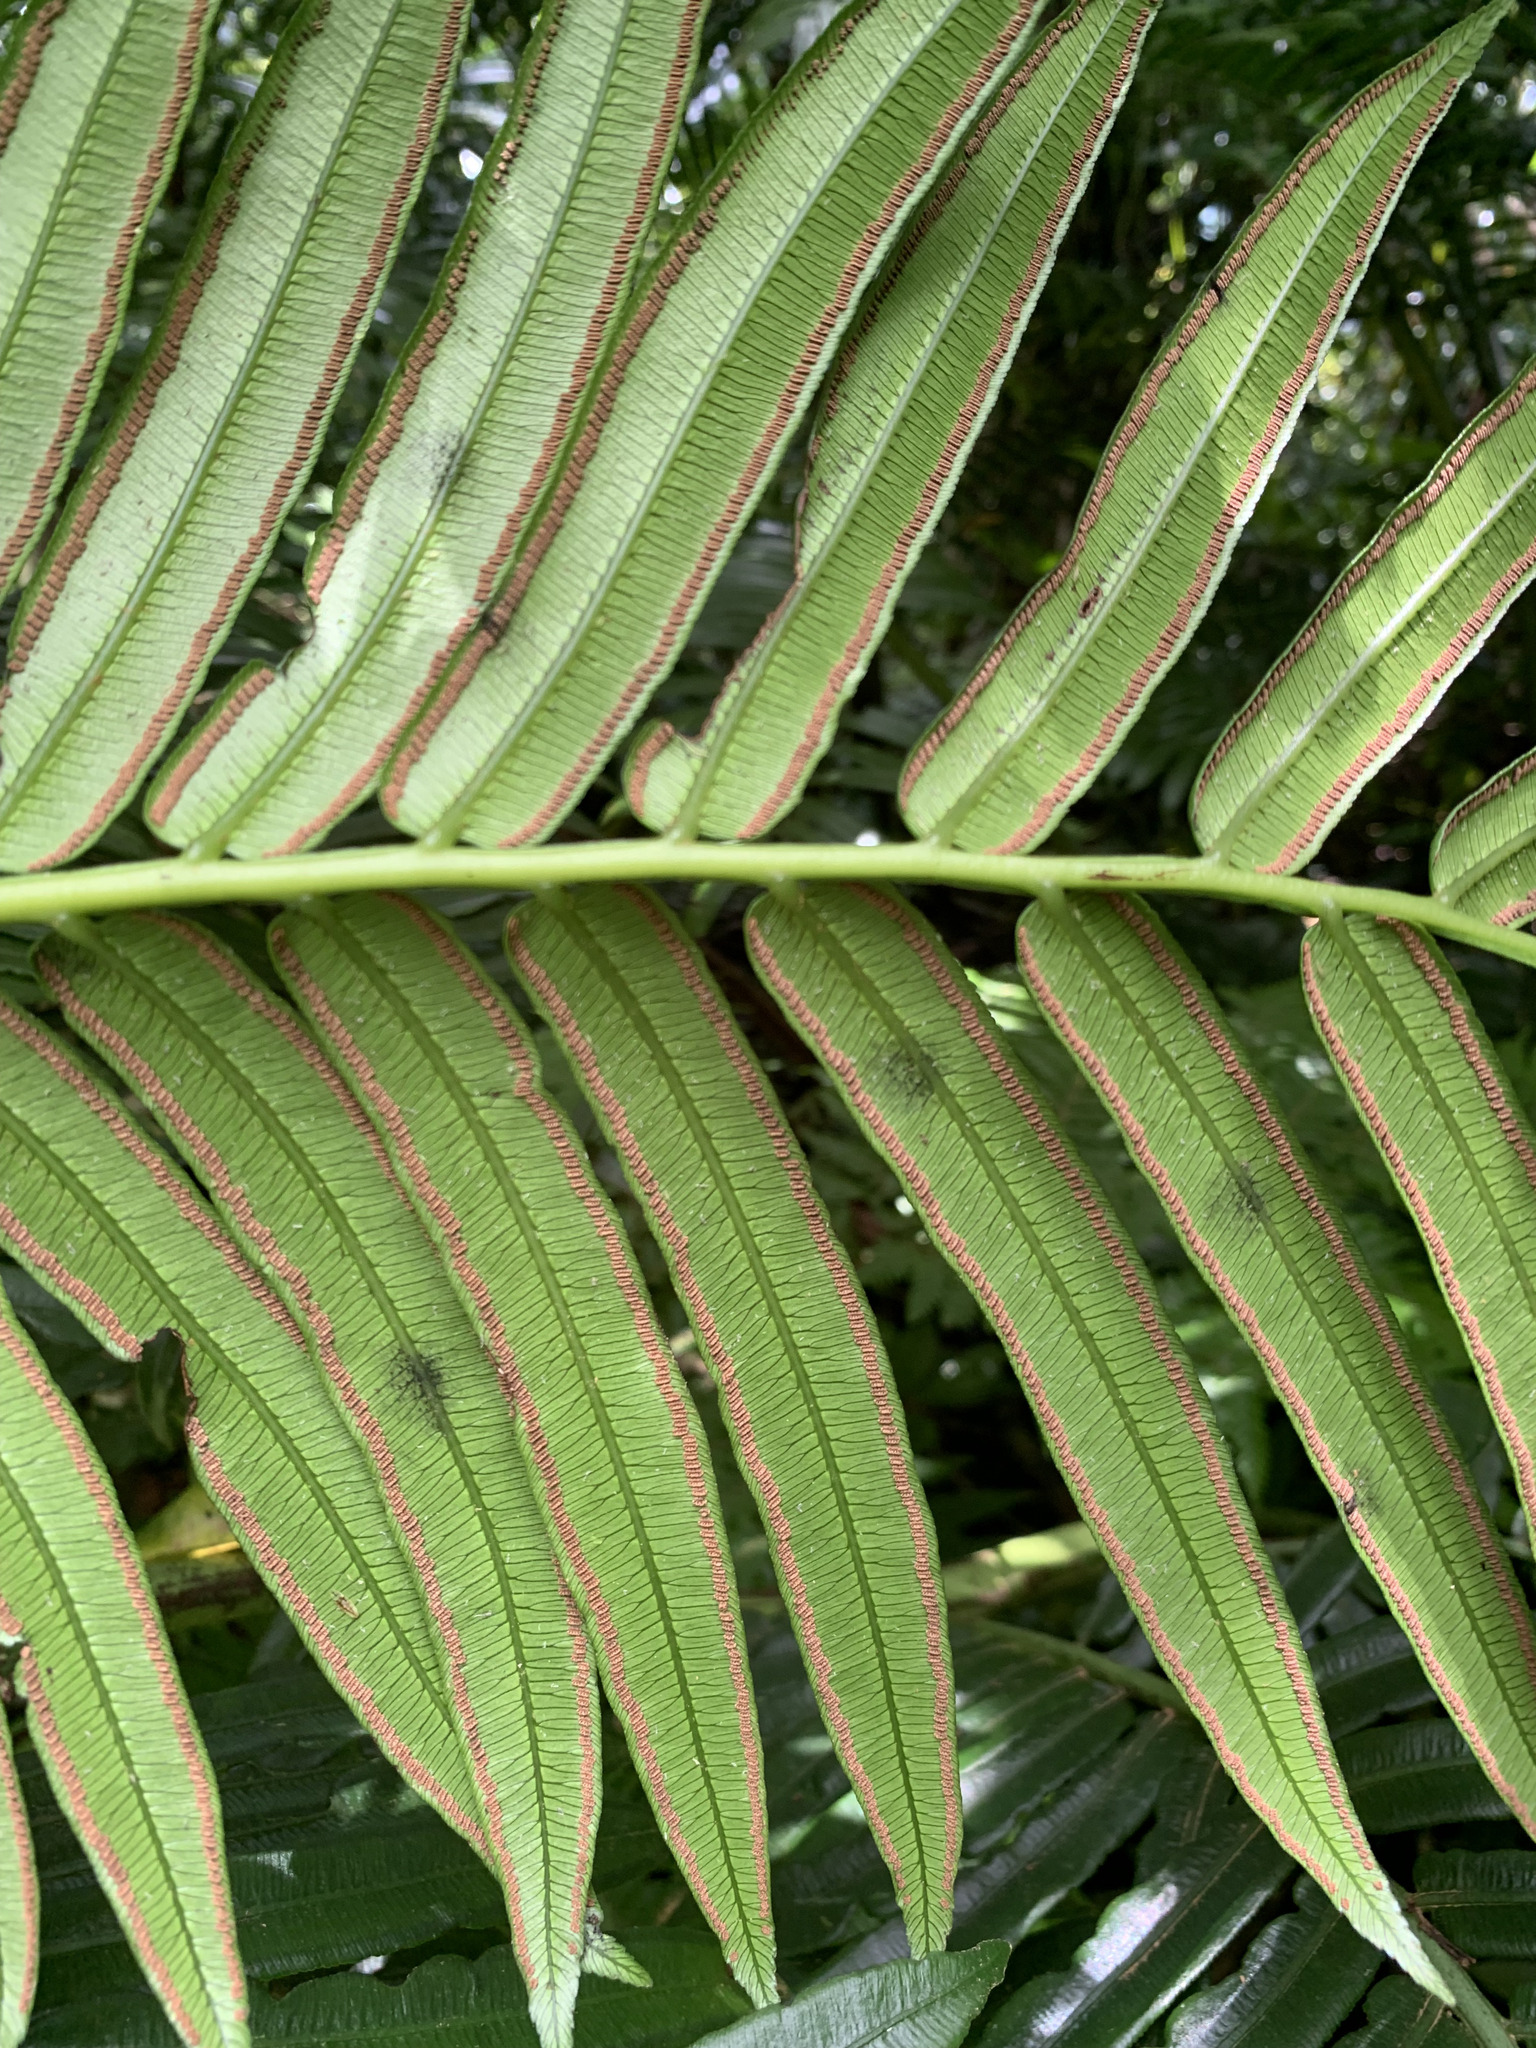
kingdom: Plantae
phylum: Tracheophyta
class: Polypodiopsida
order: Marattiales
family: Marattiaceae
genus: Angiopteris
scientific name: Angiopteris boninensis
